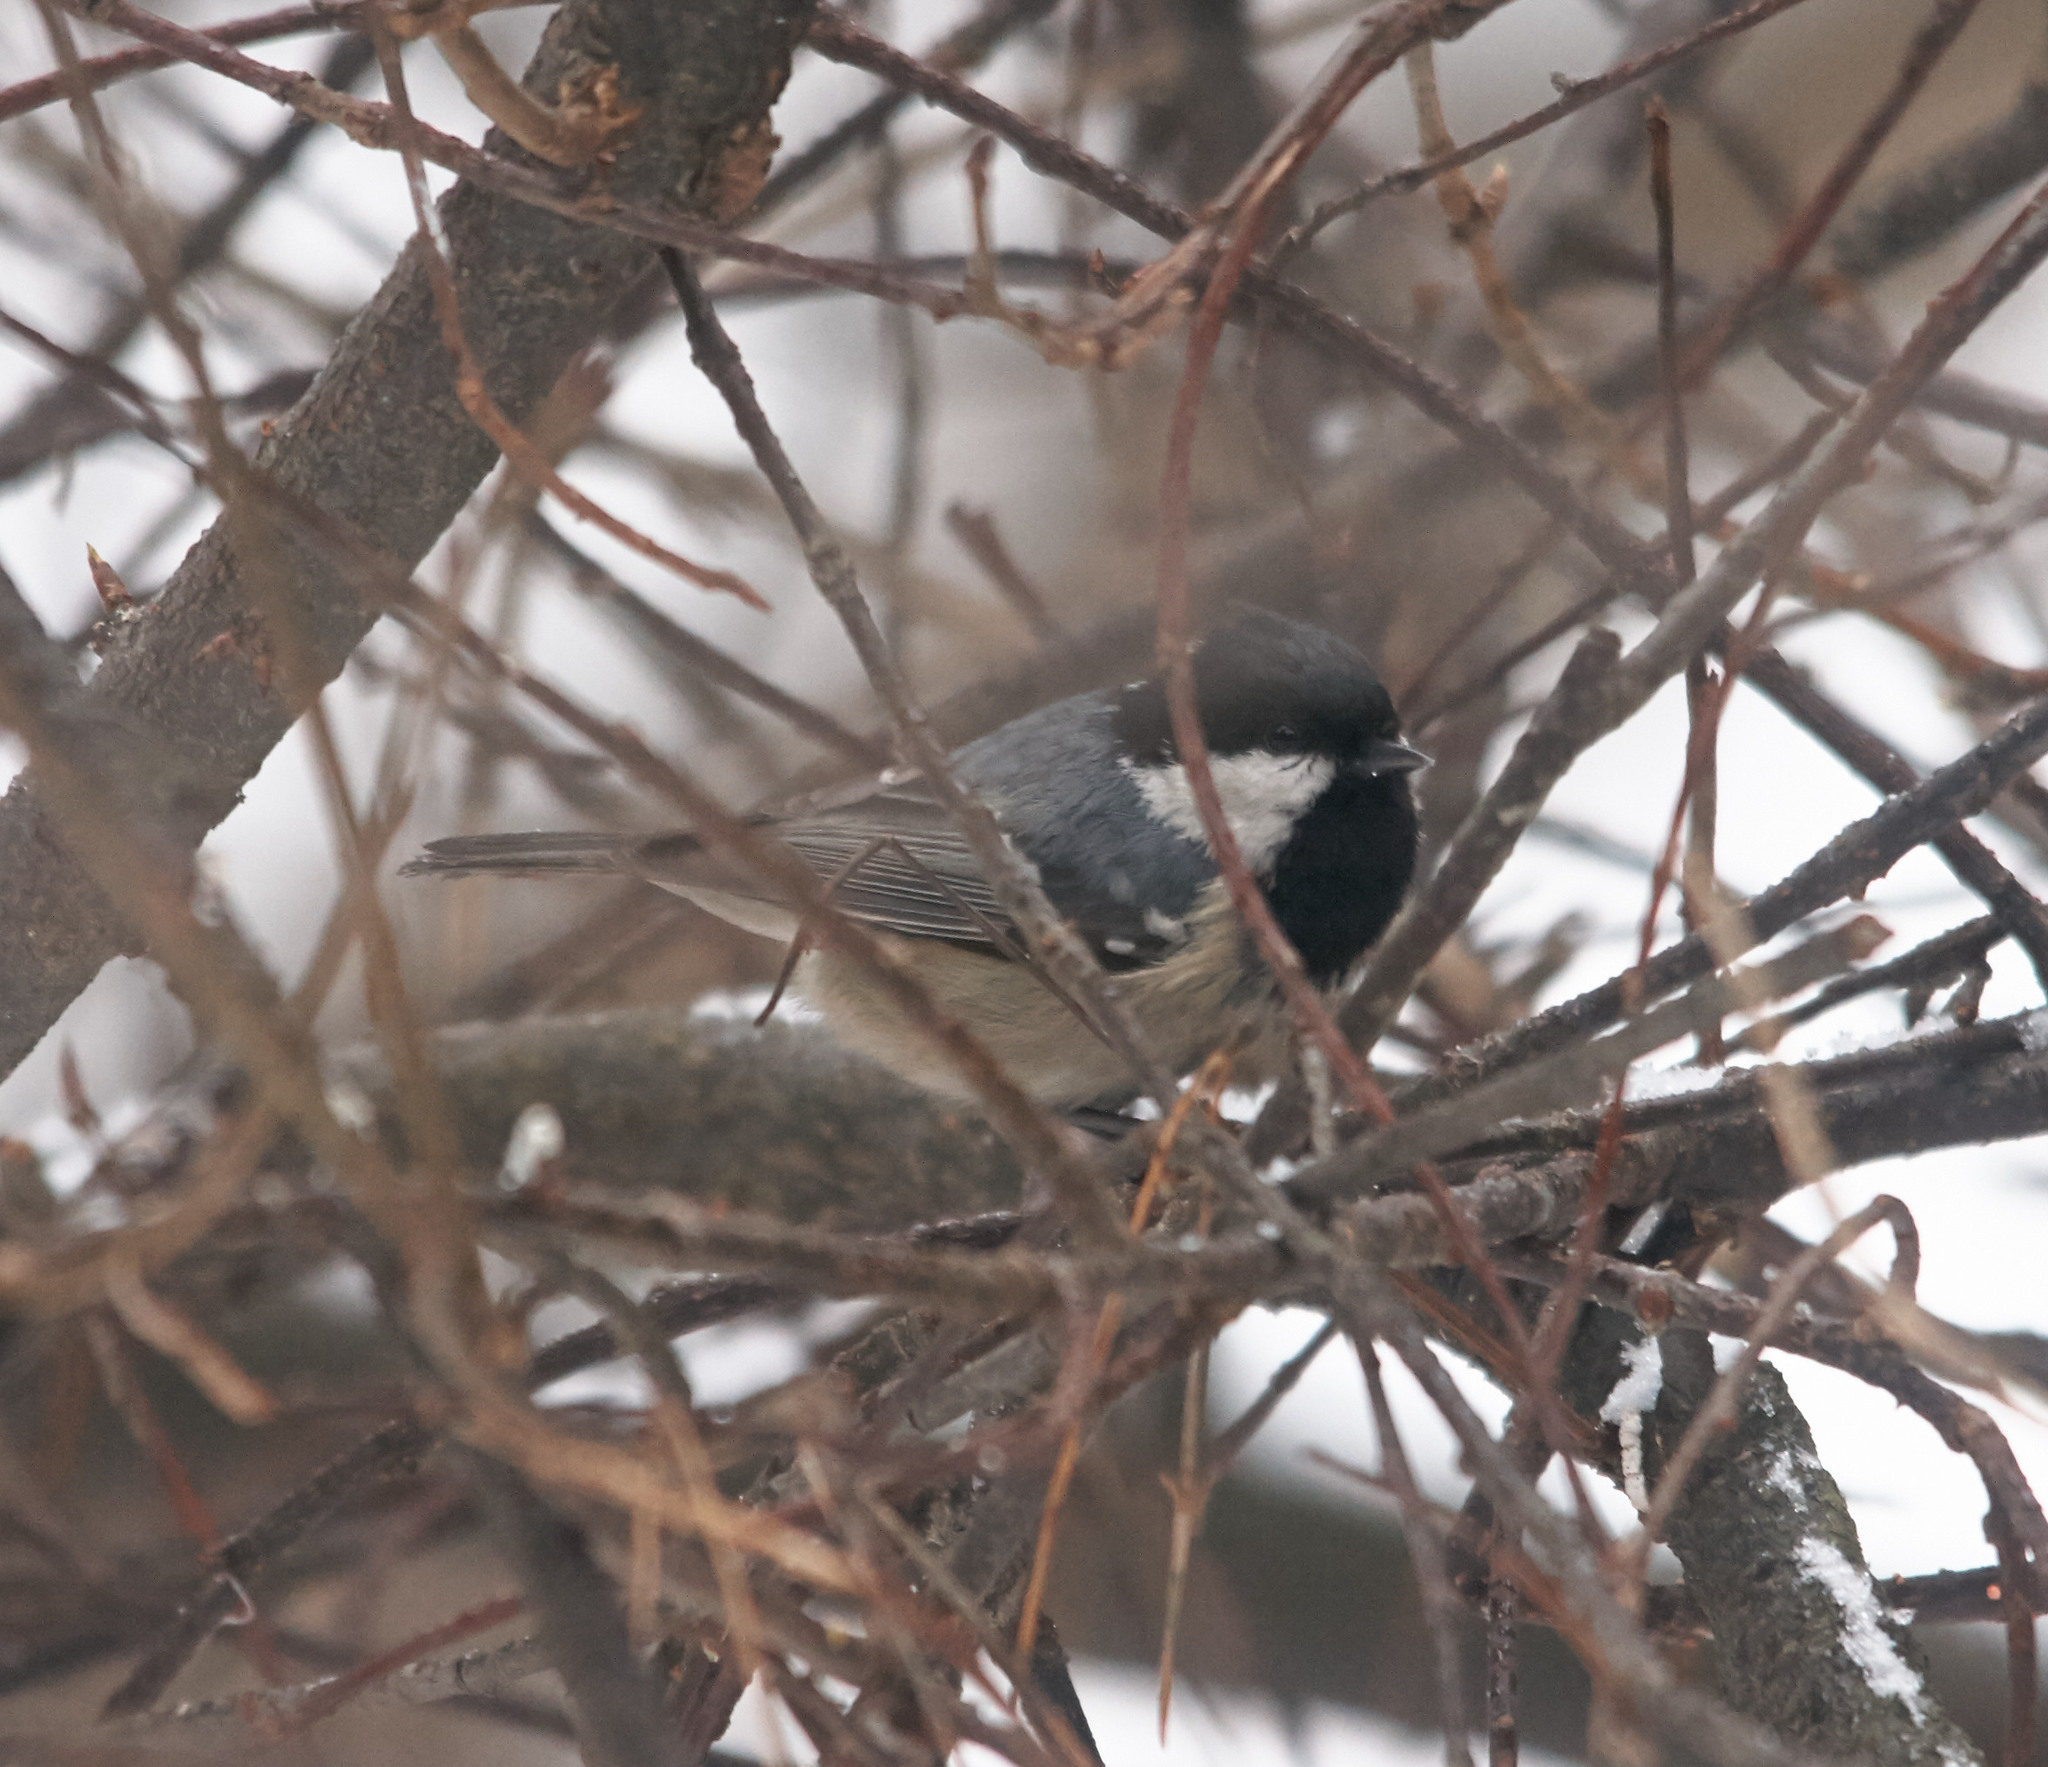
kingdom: Animalia
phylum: Chordata
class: Aves
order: Passeriformes
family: Paridae
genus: Periparus
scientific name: Periparus ater
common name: Coal tit
